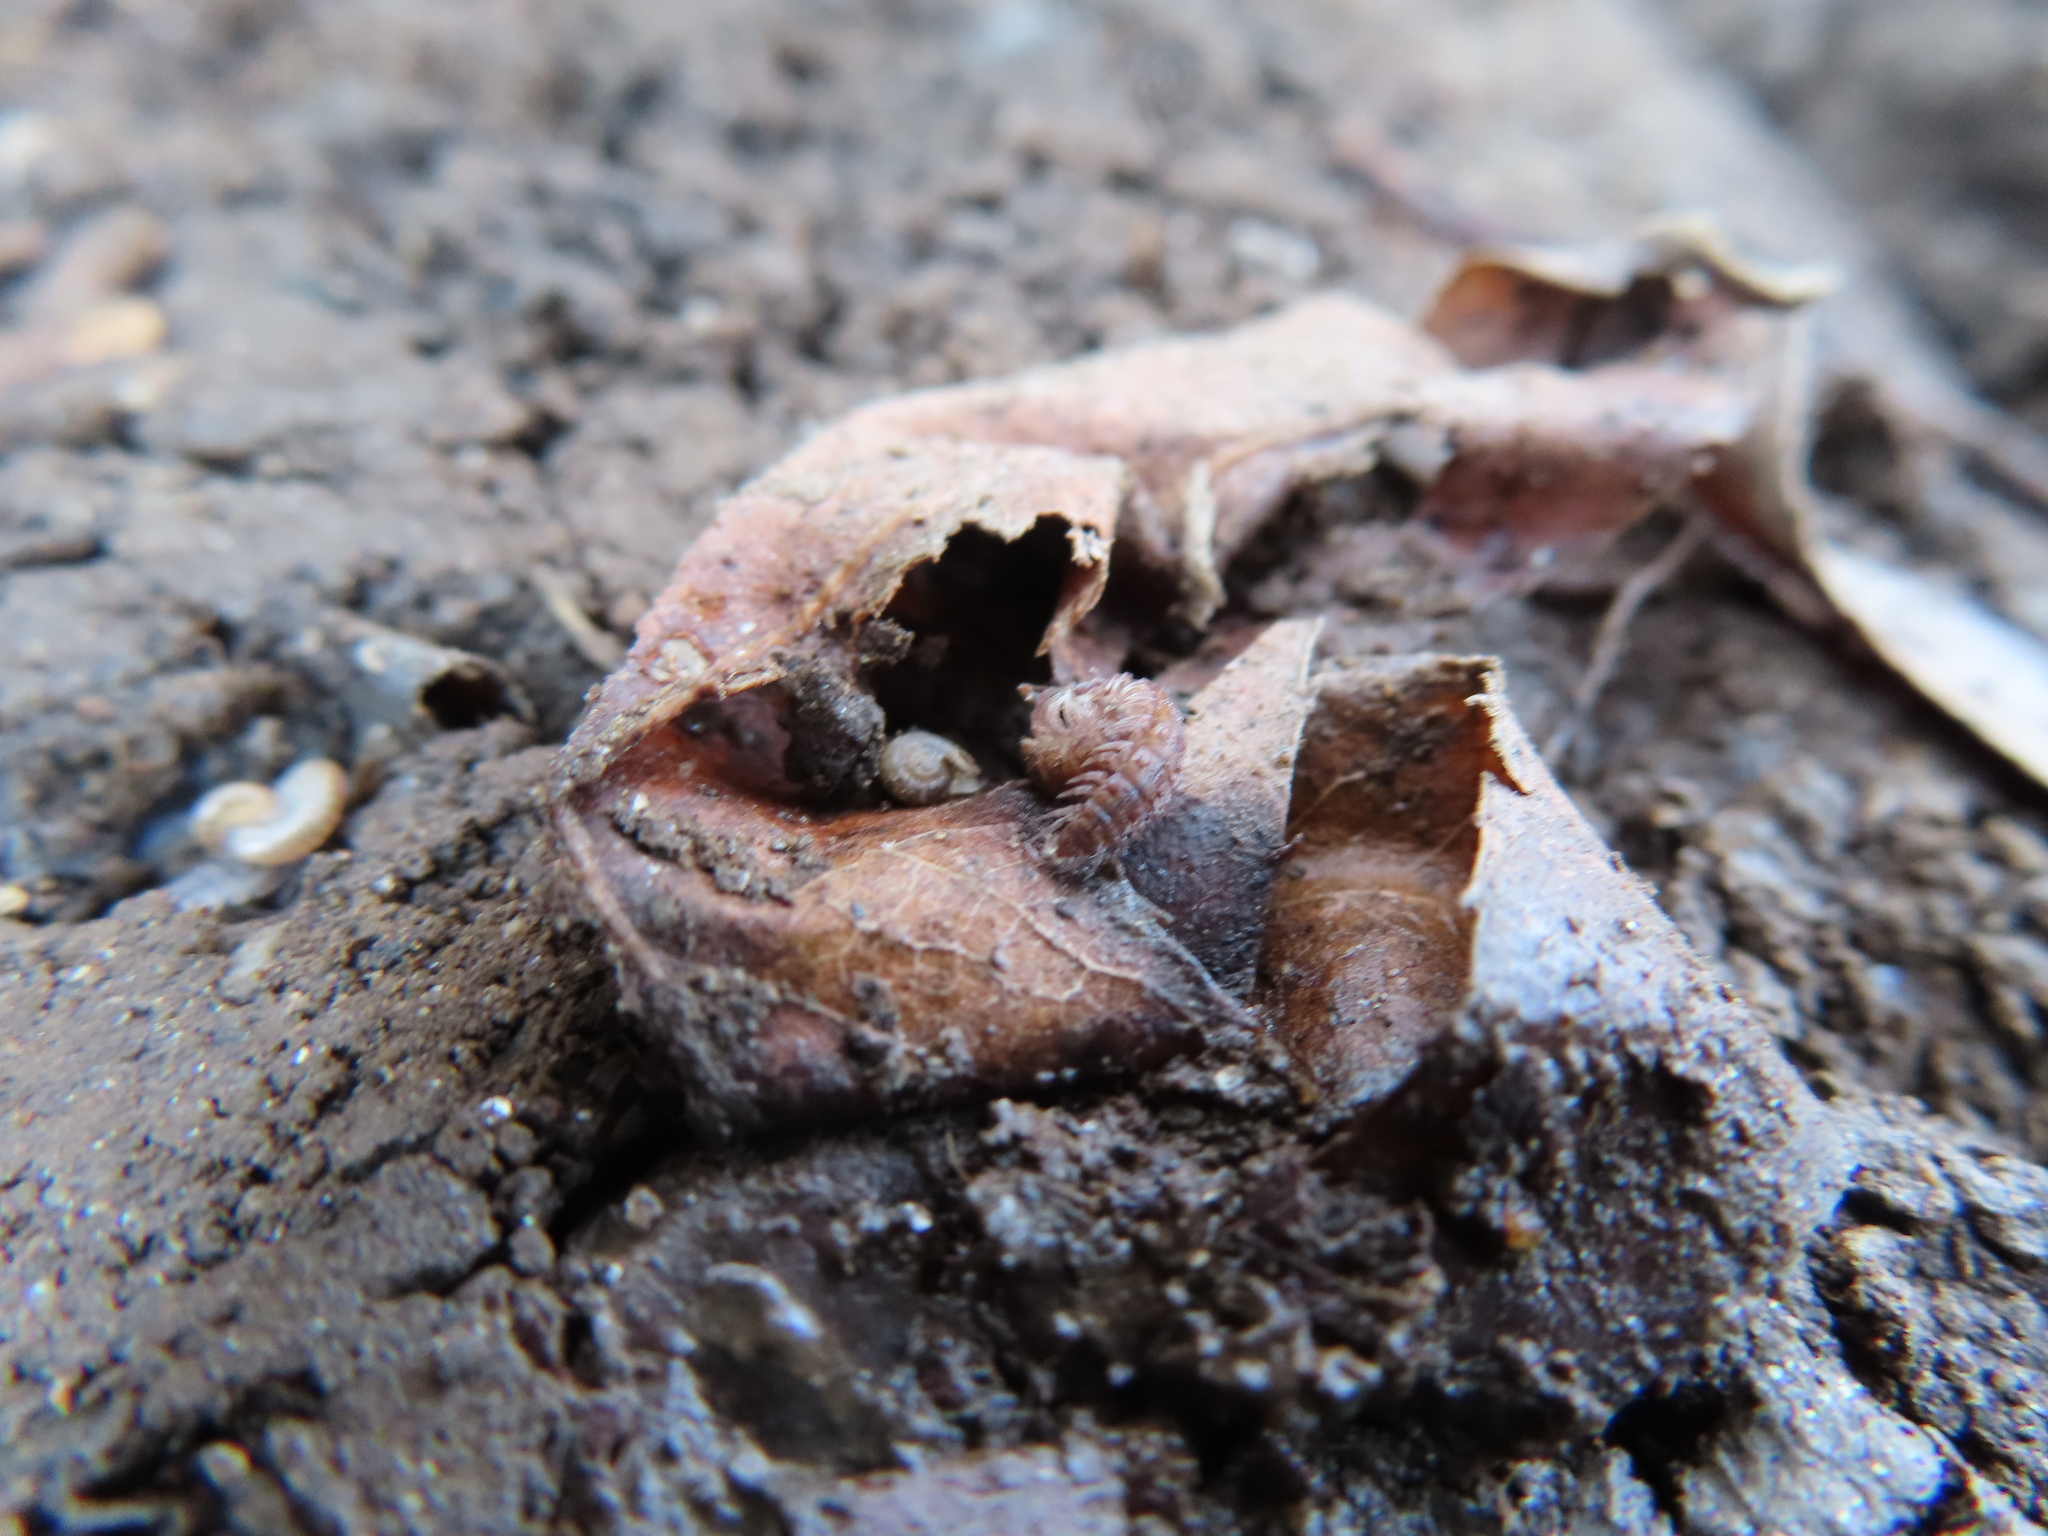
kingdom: Animalia
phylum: Mollusca
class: Gastropoda
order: Stylommatophora
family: Valloniidae
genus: Vallonia
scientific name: Vallonia excentrica
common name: Eccentric grass snail
